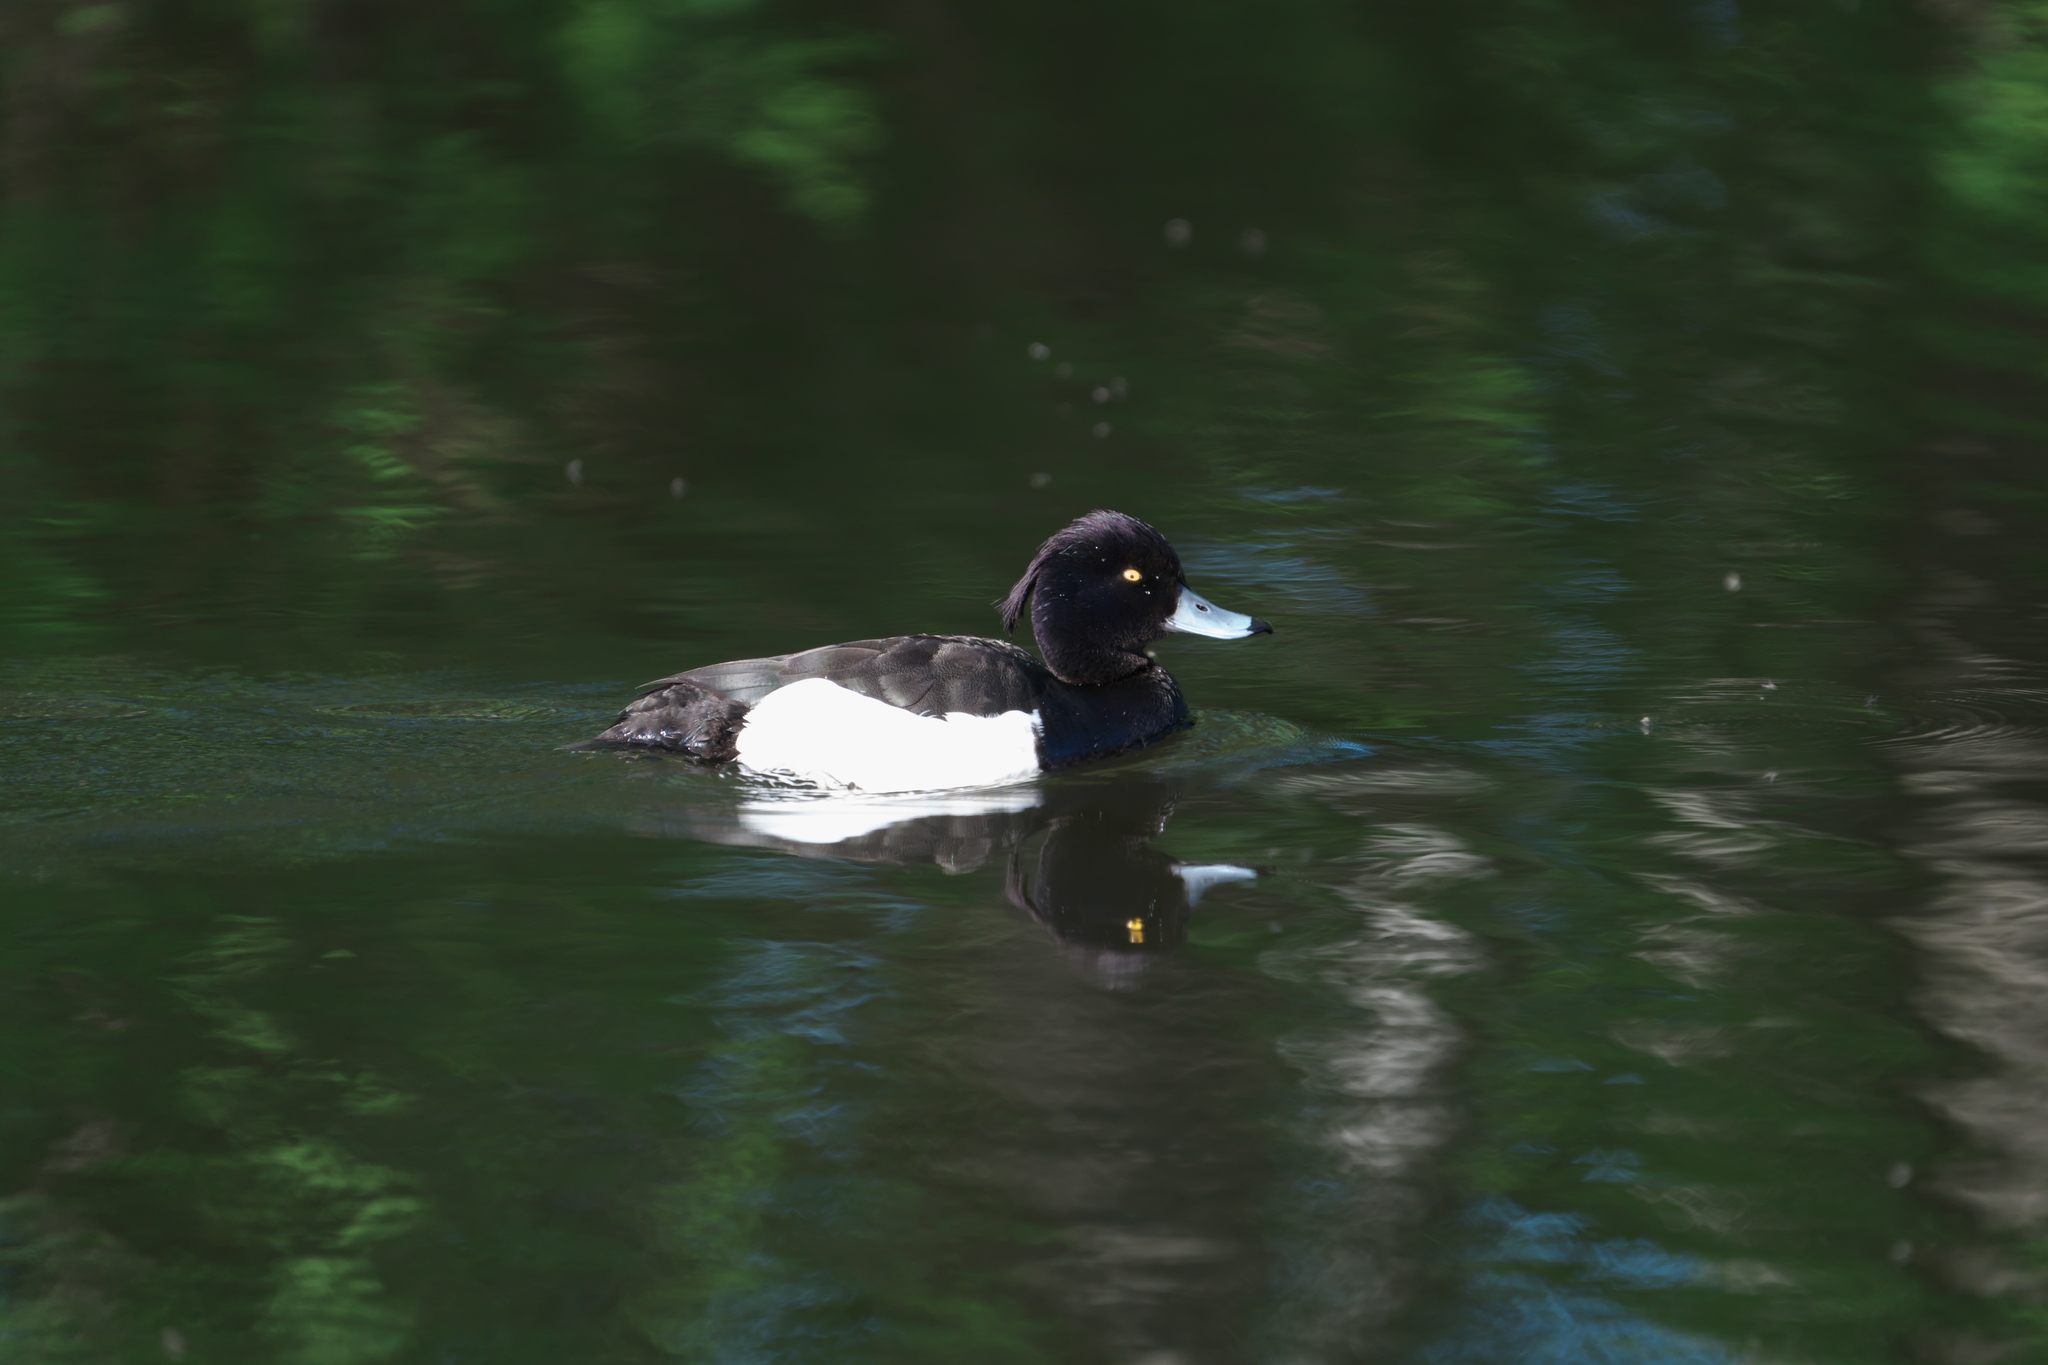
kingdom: Animalia
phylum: Chordata
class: Aves
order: Anseriformes
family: Anatidae
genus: Aythya
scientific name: Aythya fuligula
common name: Tufted duck
